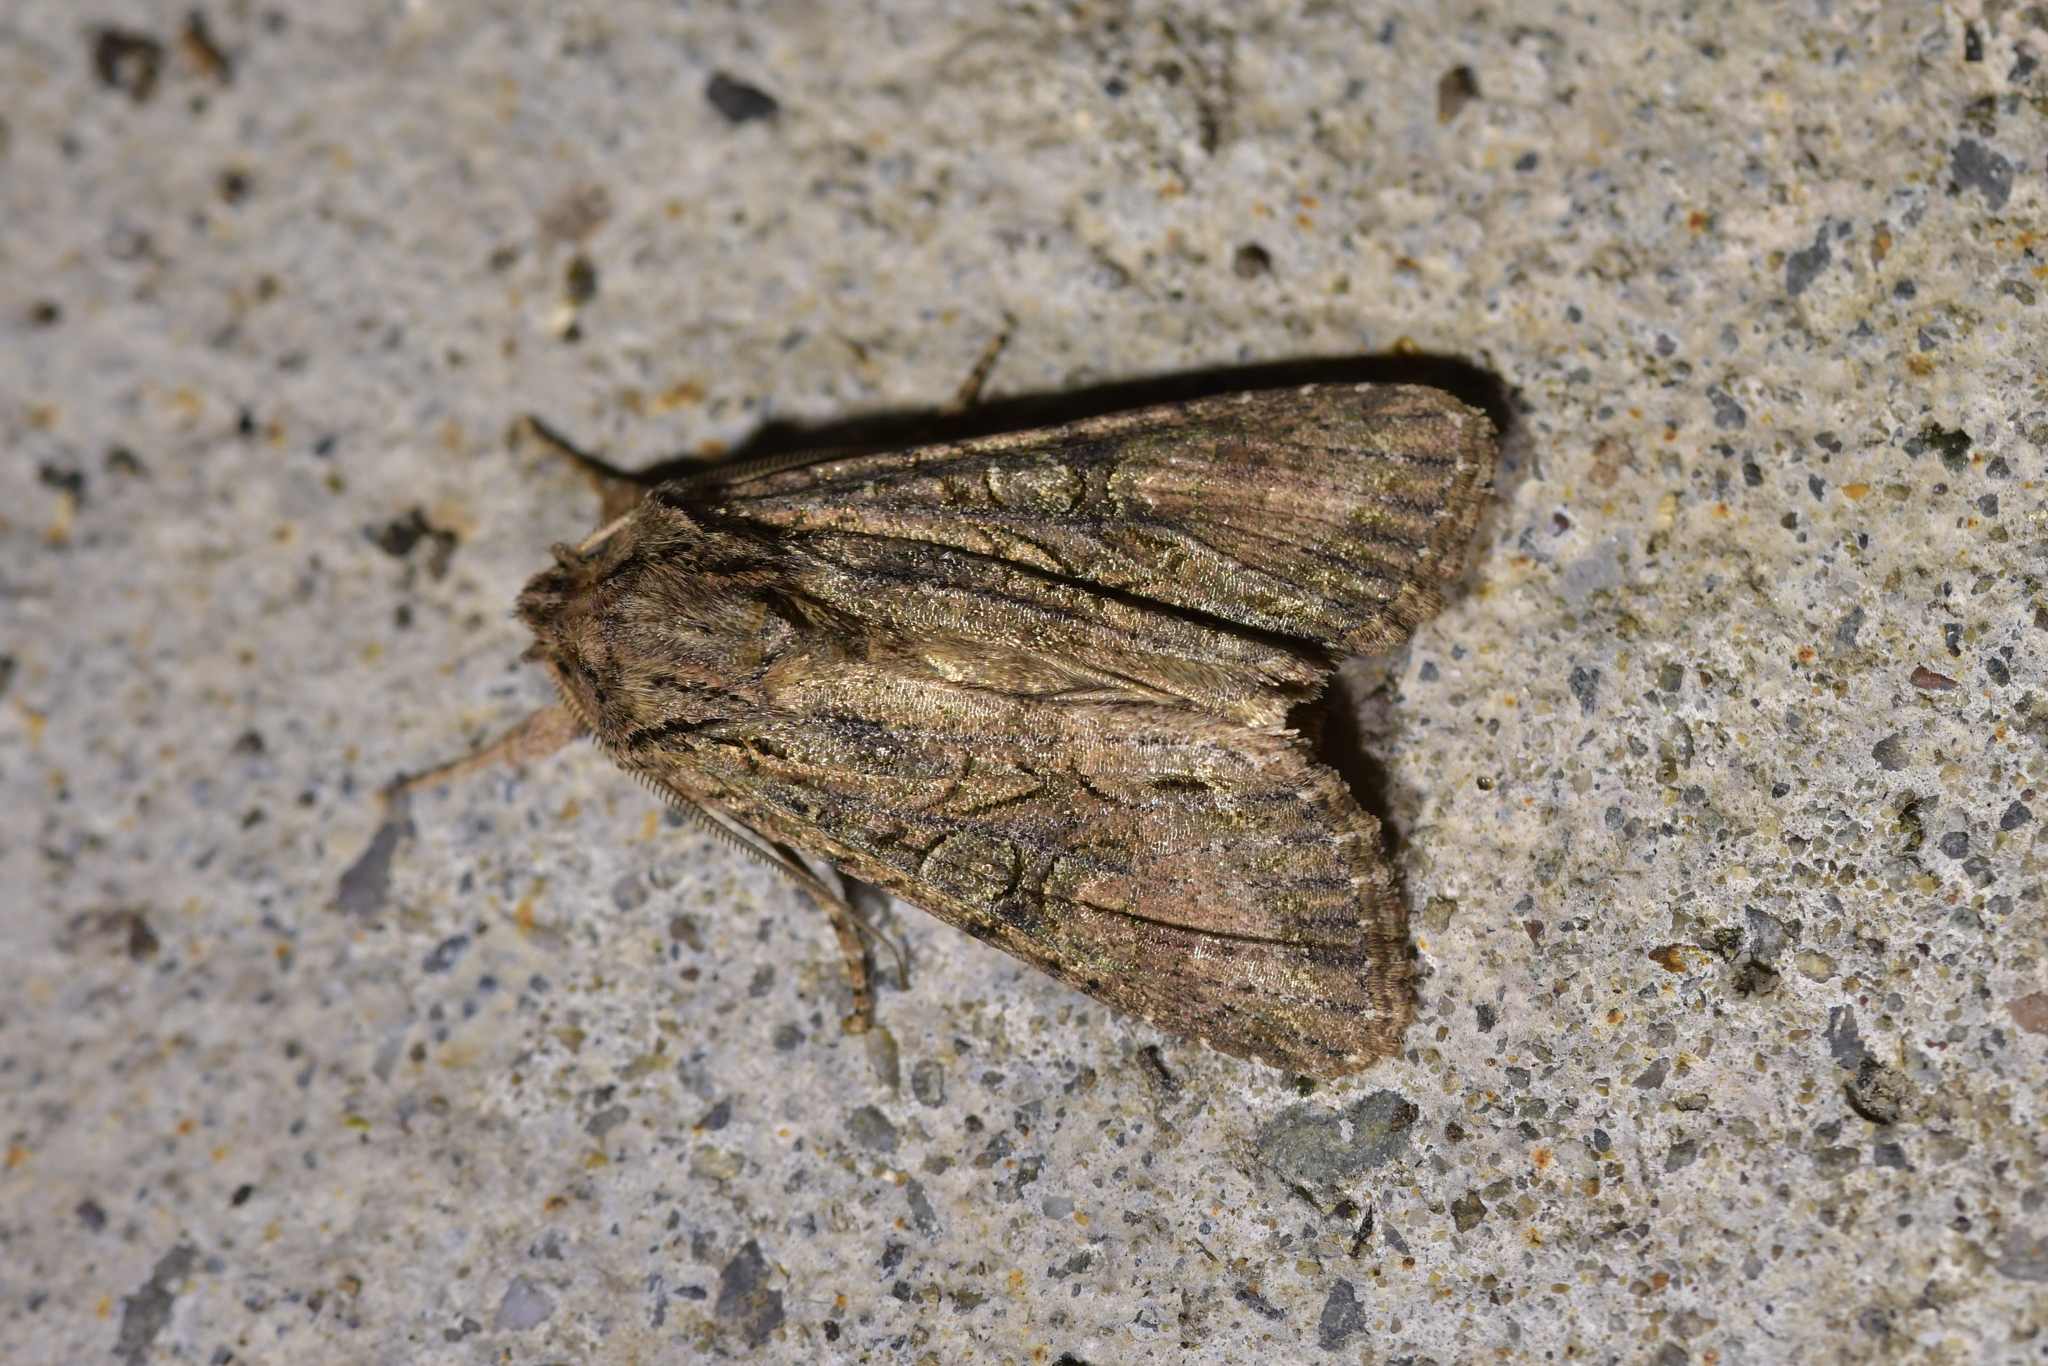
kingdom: Animalia
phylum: Arthropoda
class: Insecta
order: Lepidoptera
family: Noctuidae
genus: Ichneutica
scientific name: Ichneutica mutans
